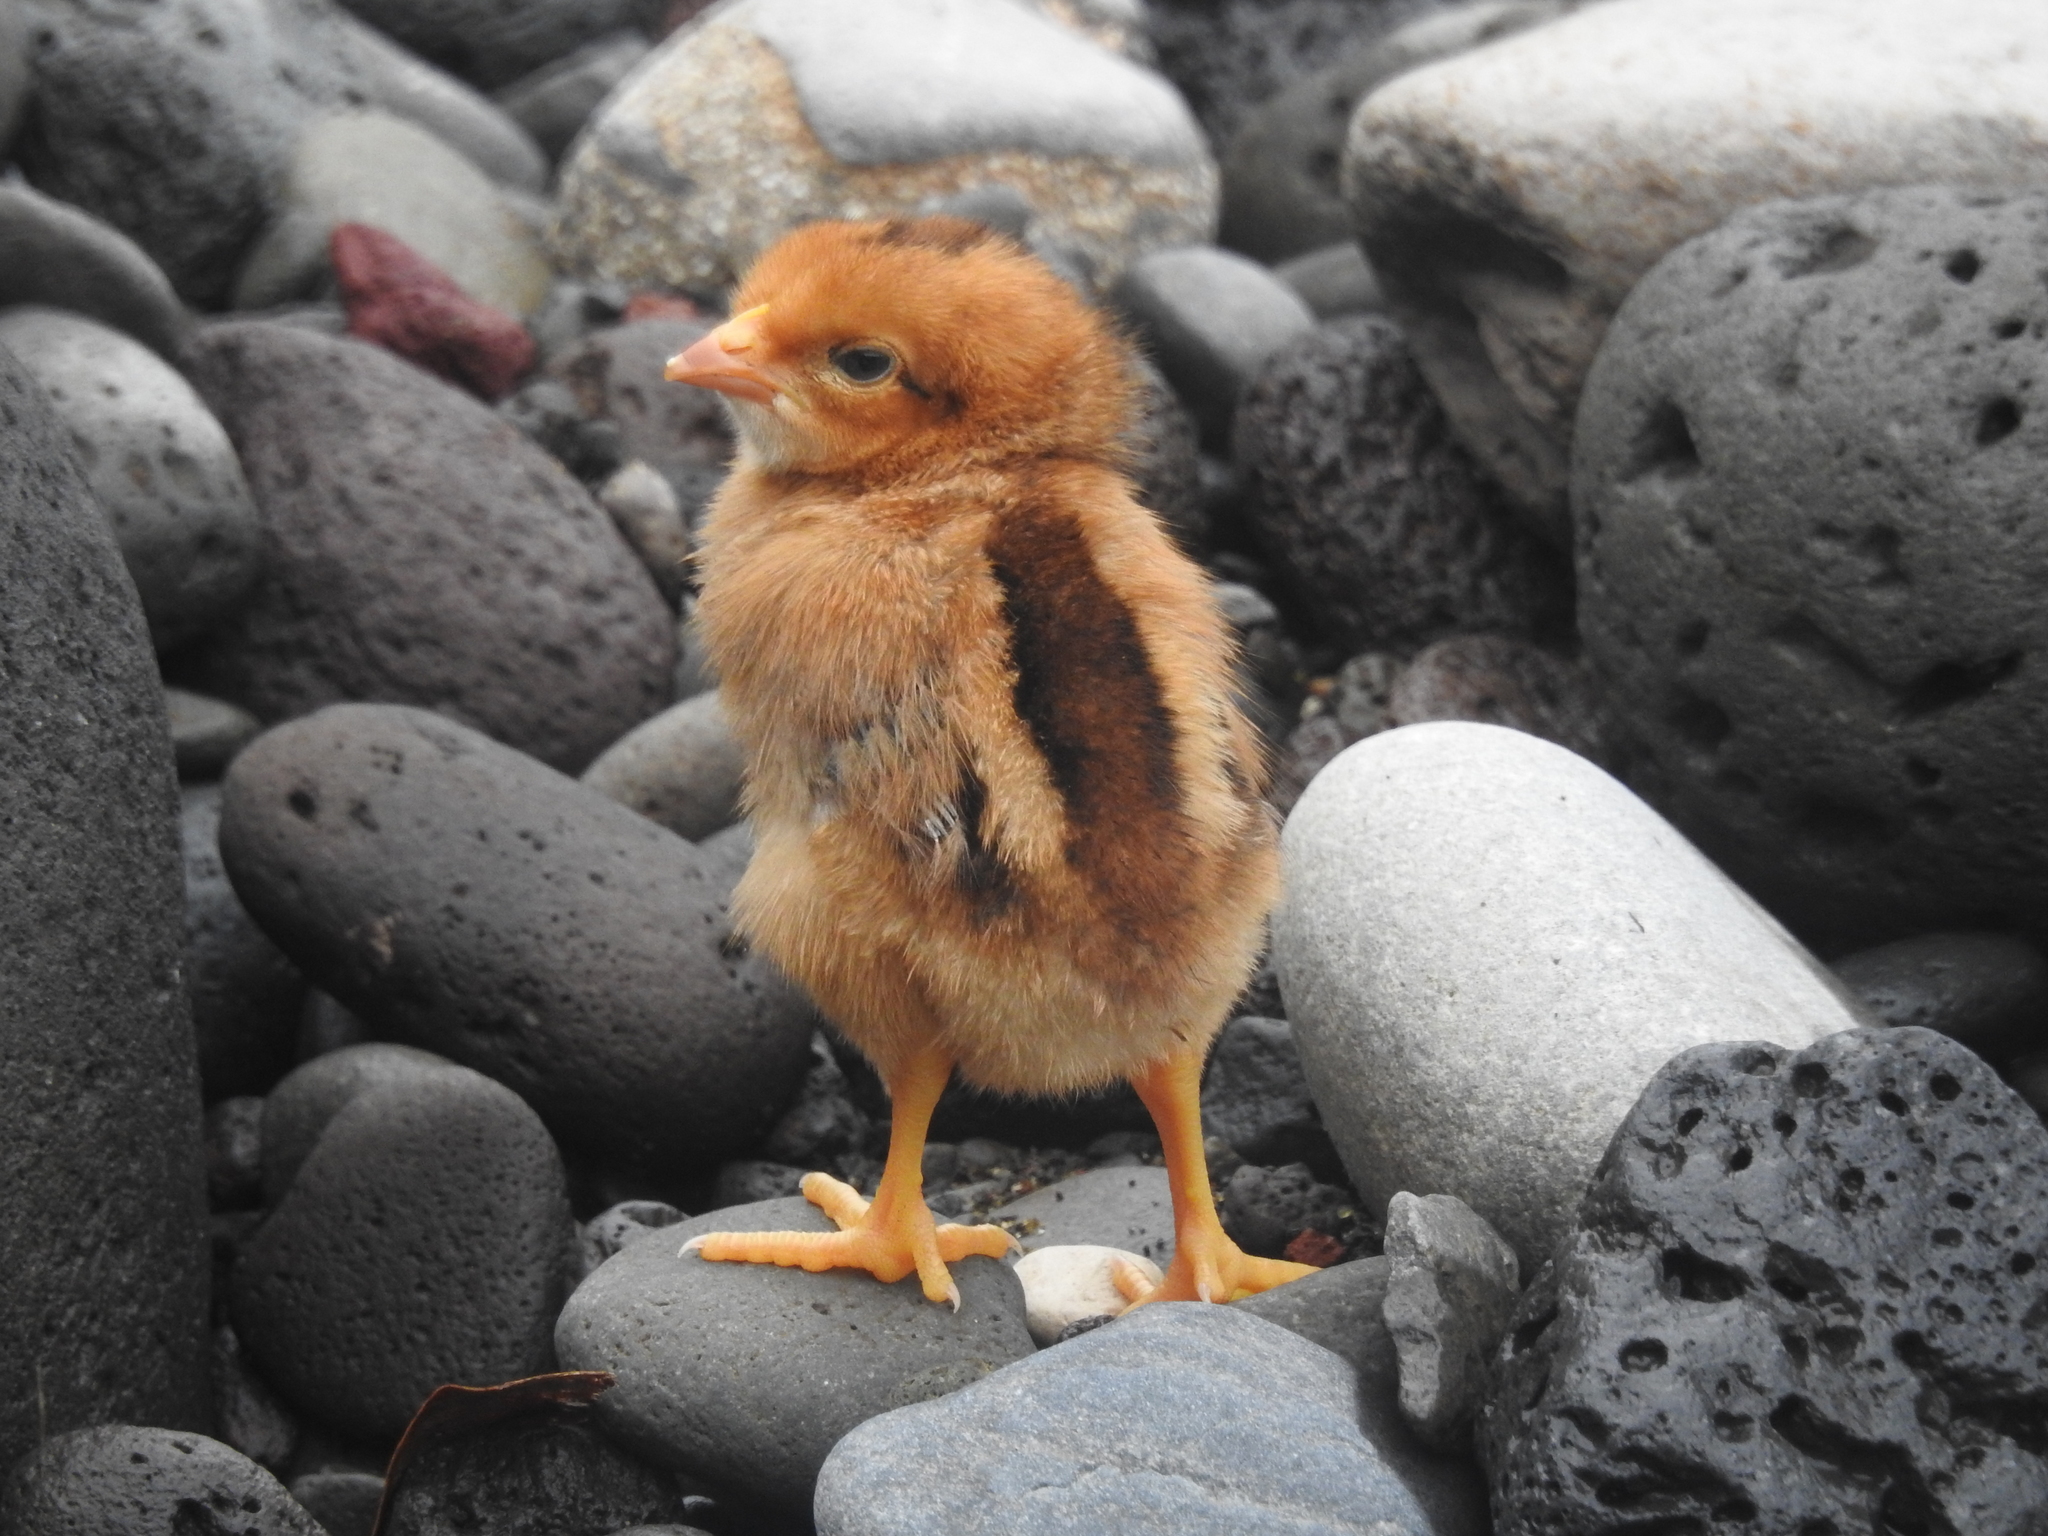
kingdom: Animalia
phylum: Chordata
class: Aves
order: Galliformes
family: Phasianidae
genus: Gallus
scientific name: Gallus gallus
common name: Red junglefowl
